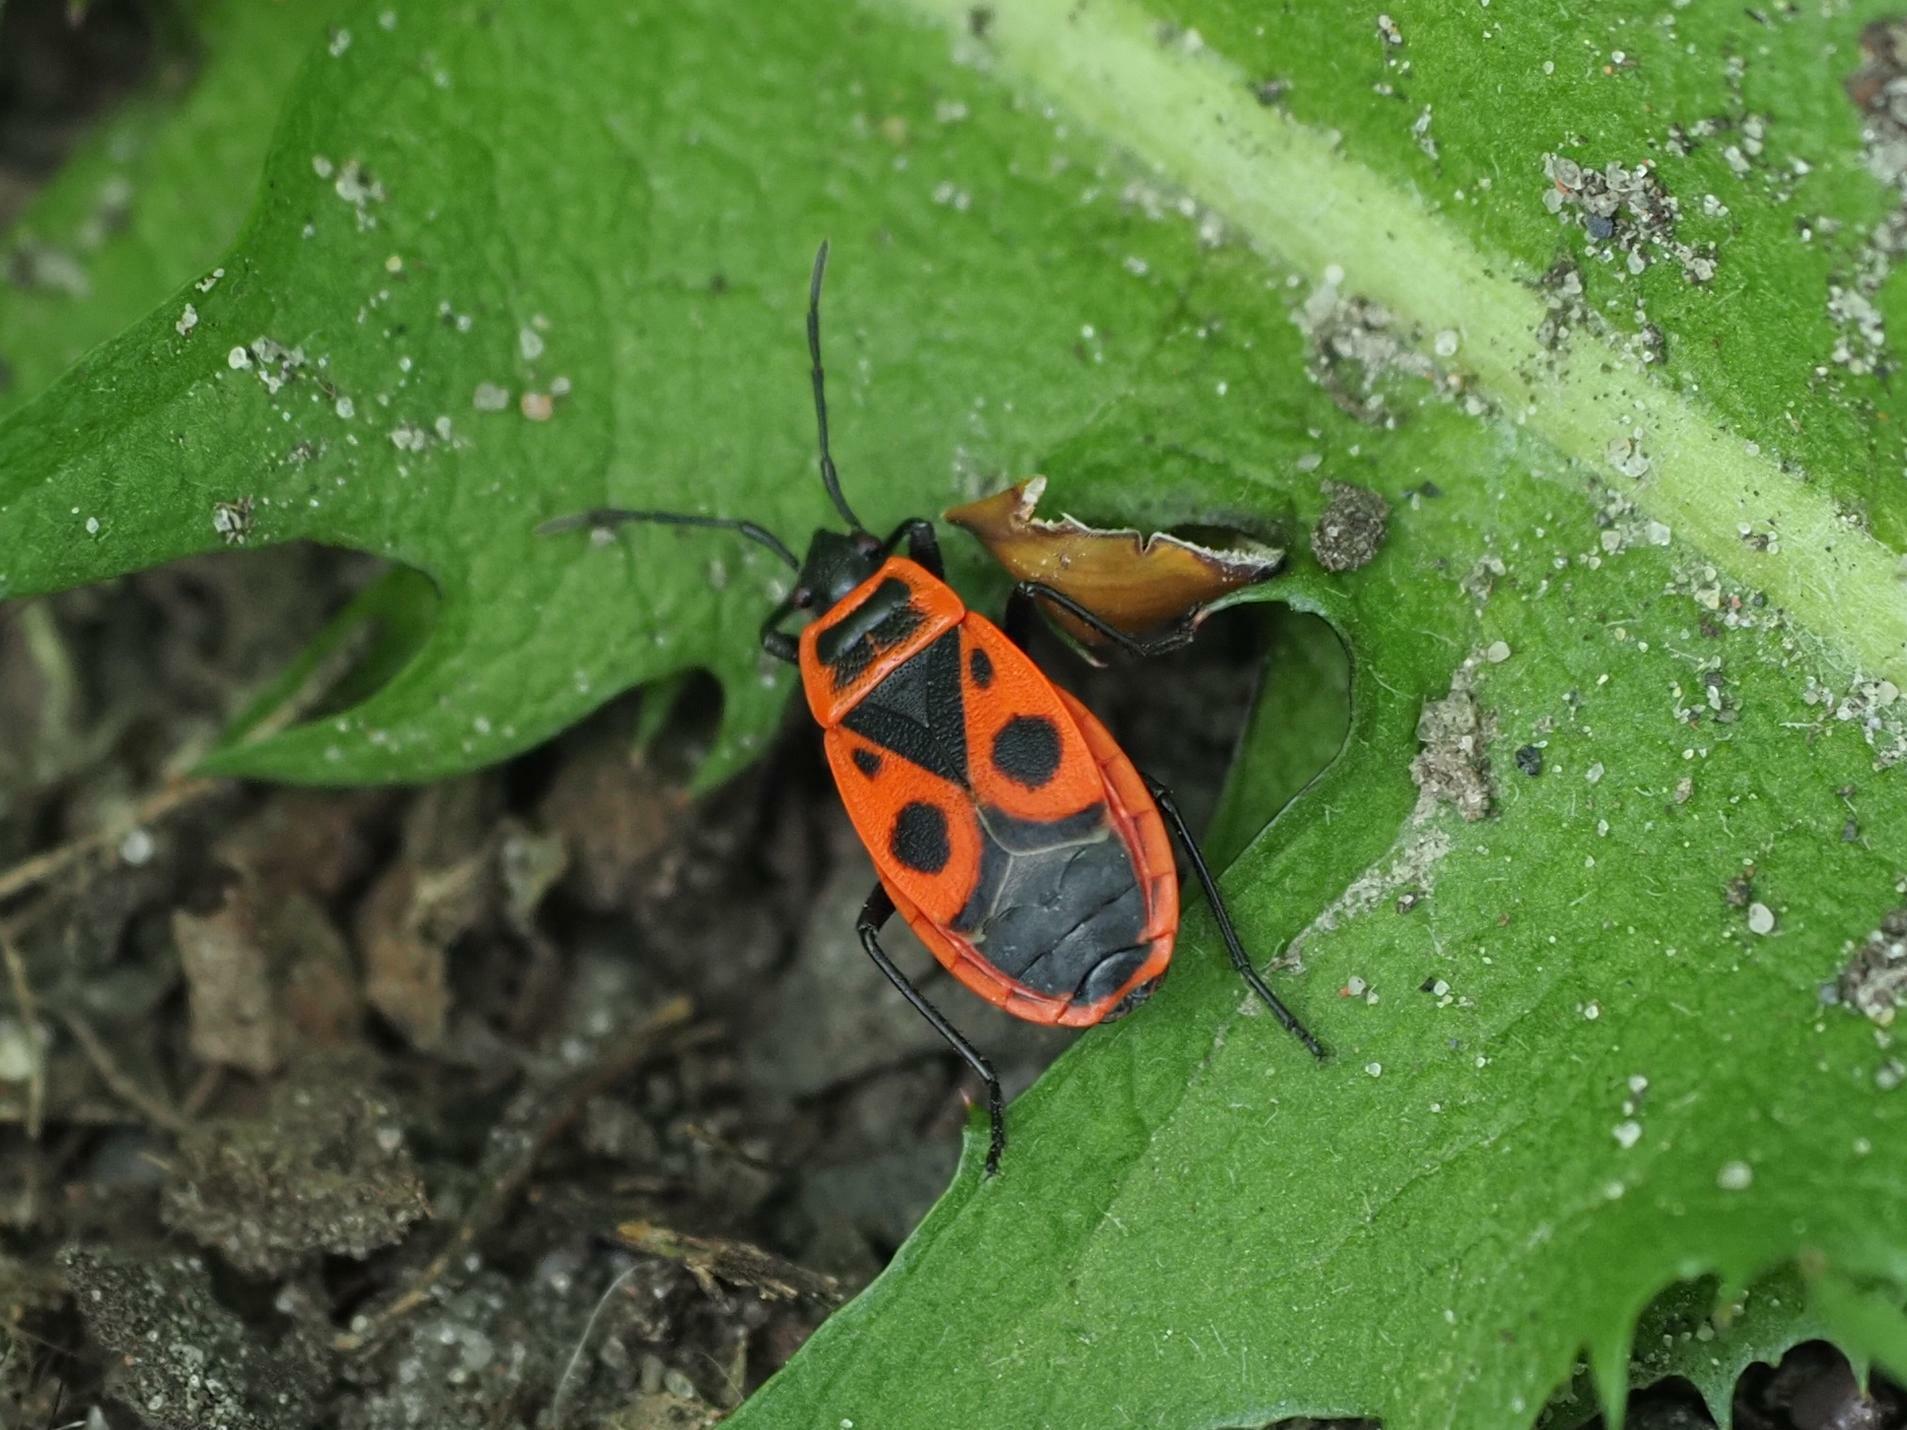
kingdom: Animalia
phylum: Arthropoda
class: Insecta
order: Hemiptera
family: Pyrrhocoridae
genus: Pyrrhocoris
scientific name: Pyrrhocoris apterus
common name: Firebug
